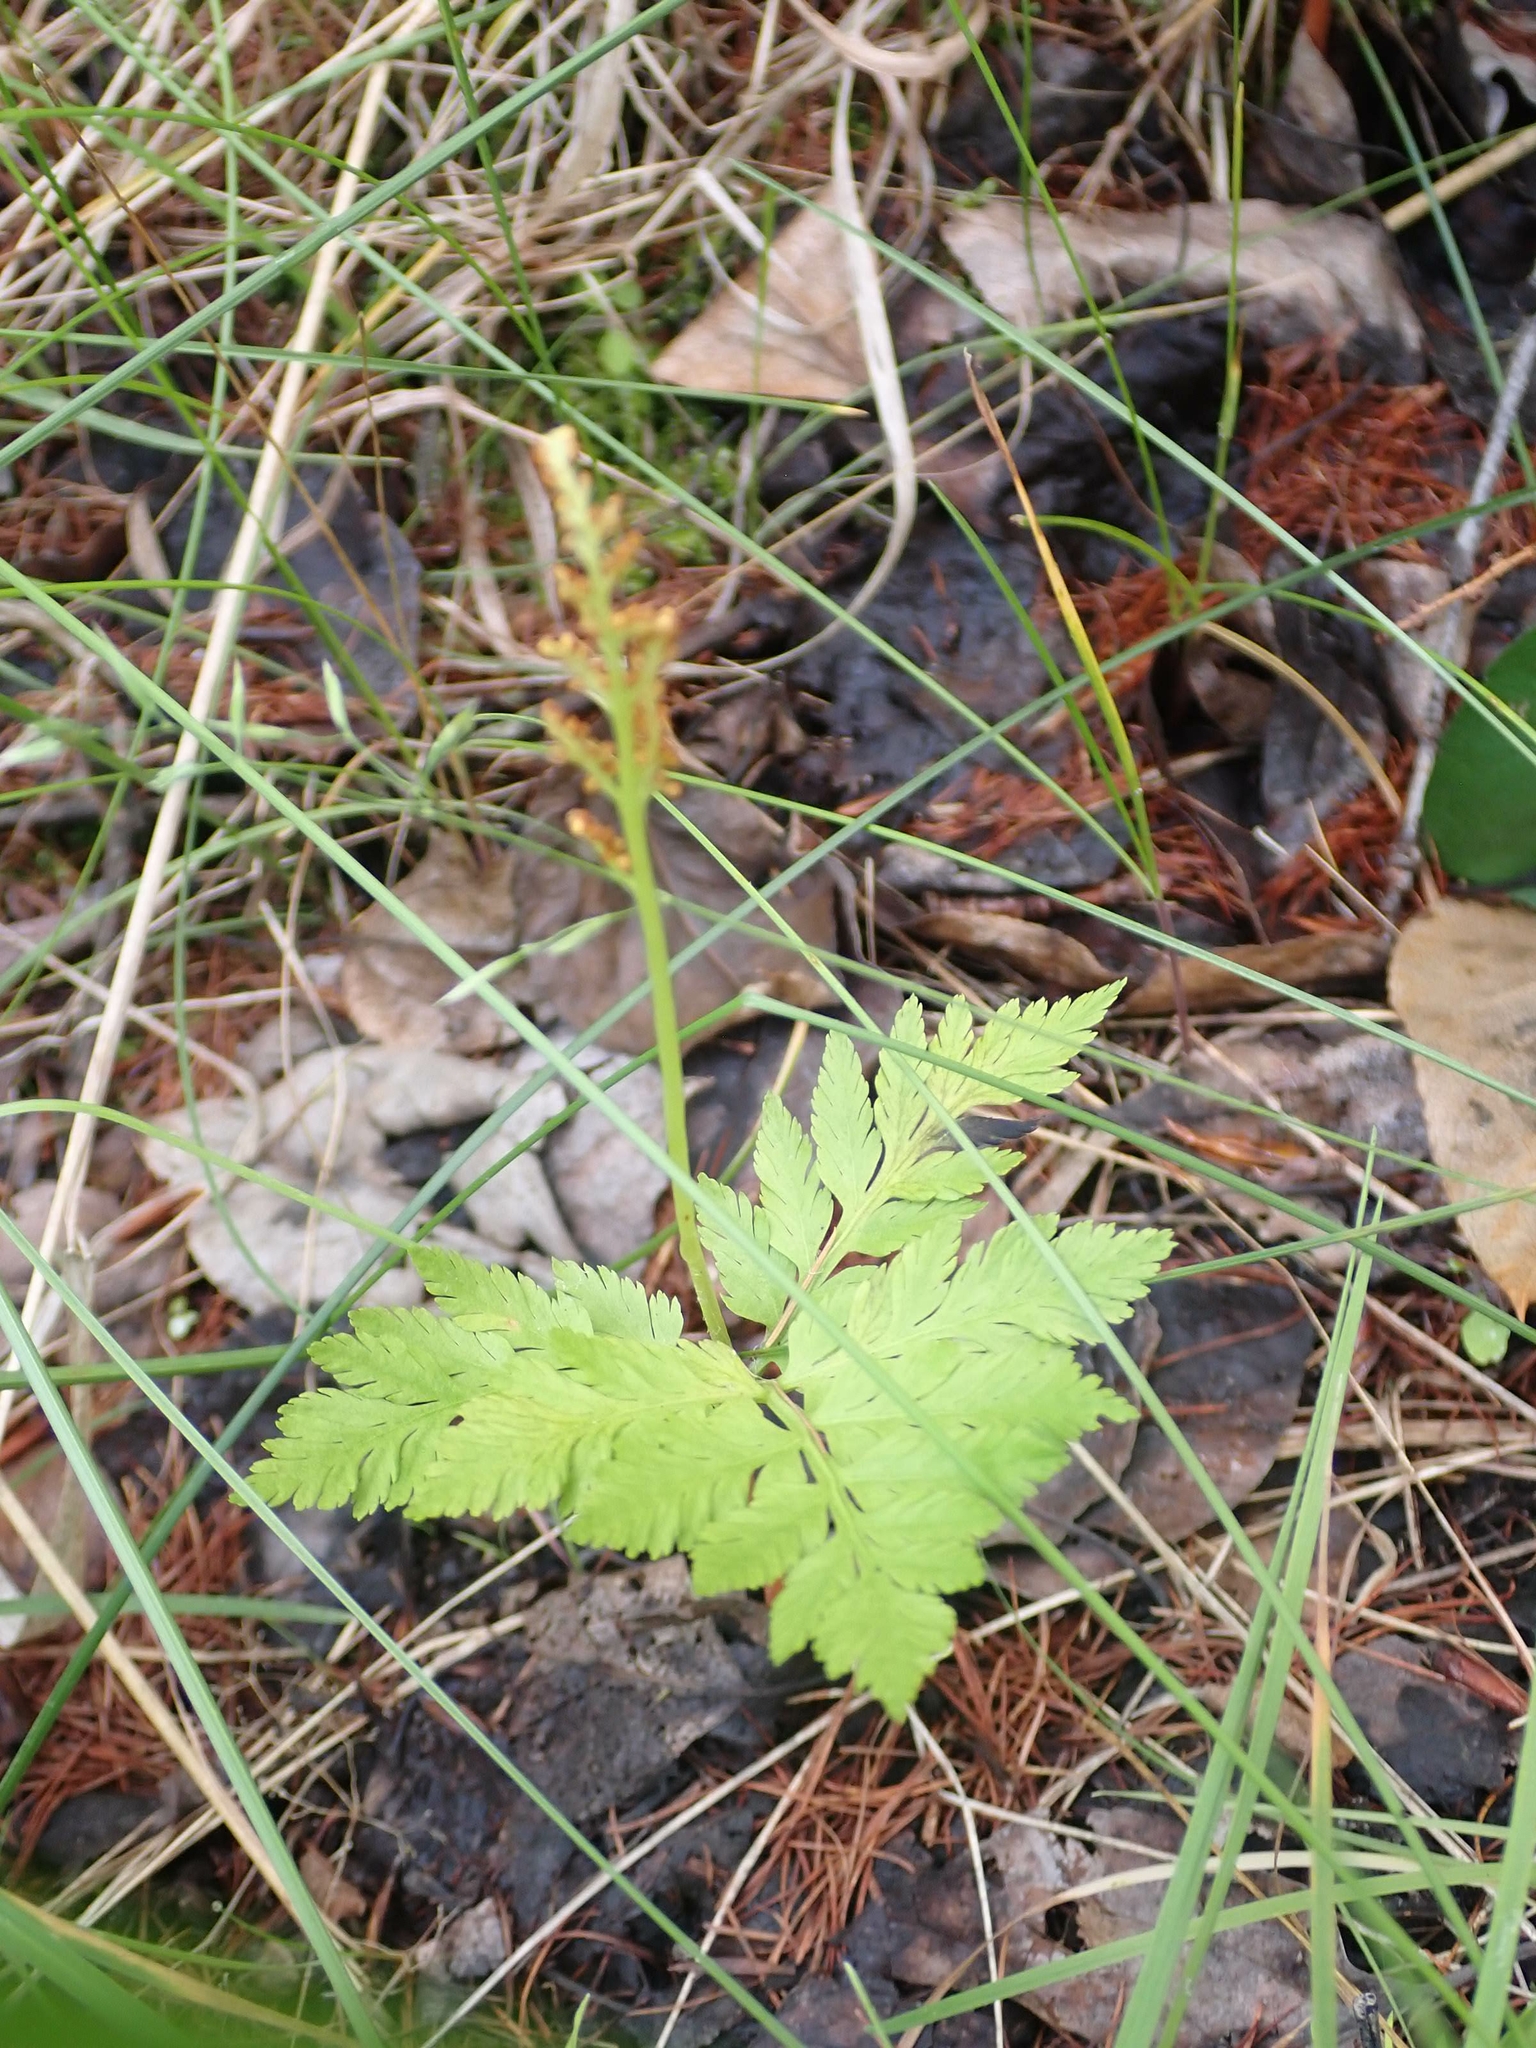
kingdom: Plantae
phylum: Tracheophyta
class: Polypodiopsida
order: Ophioglossales
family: Ophioglossaceae
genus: Botrypus
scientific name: Botrypus virginianus
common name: Common grapefern
